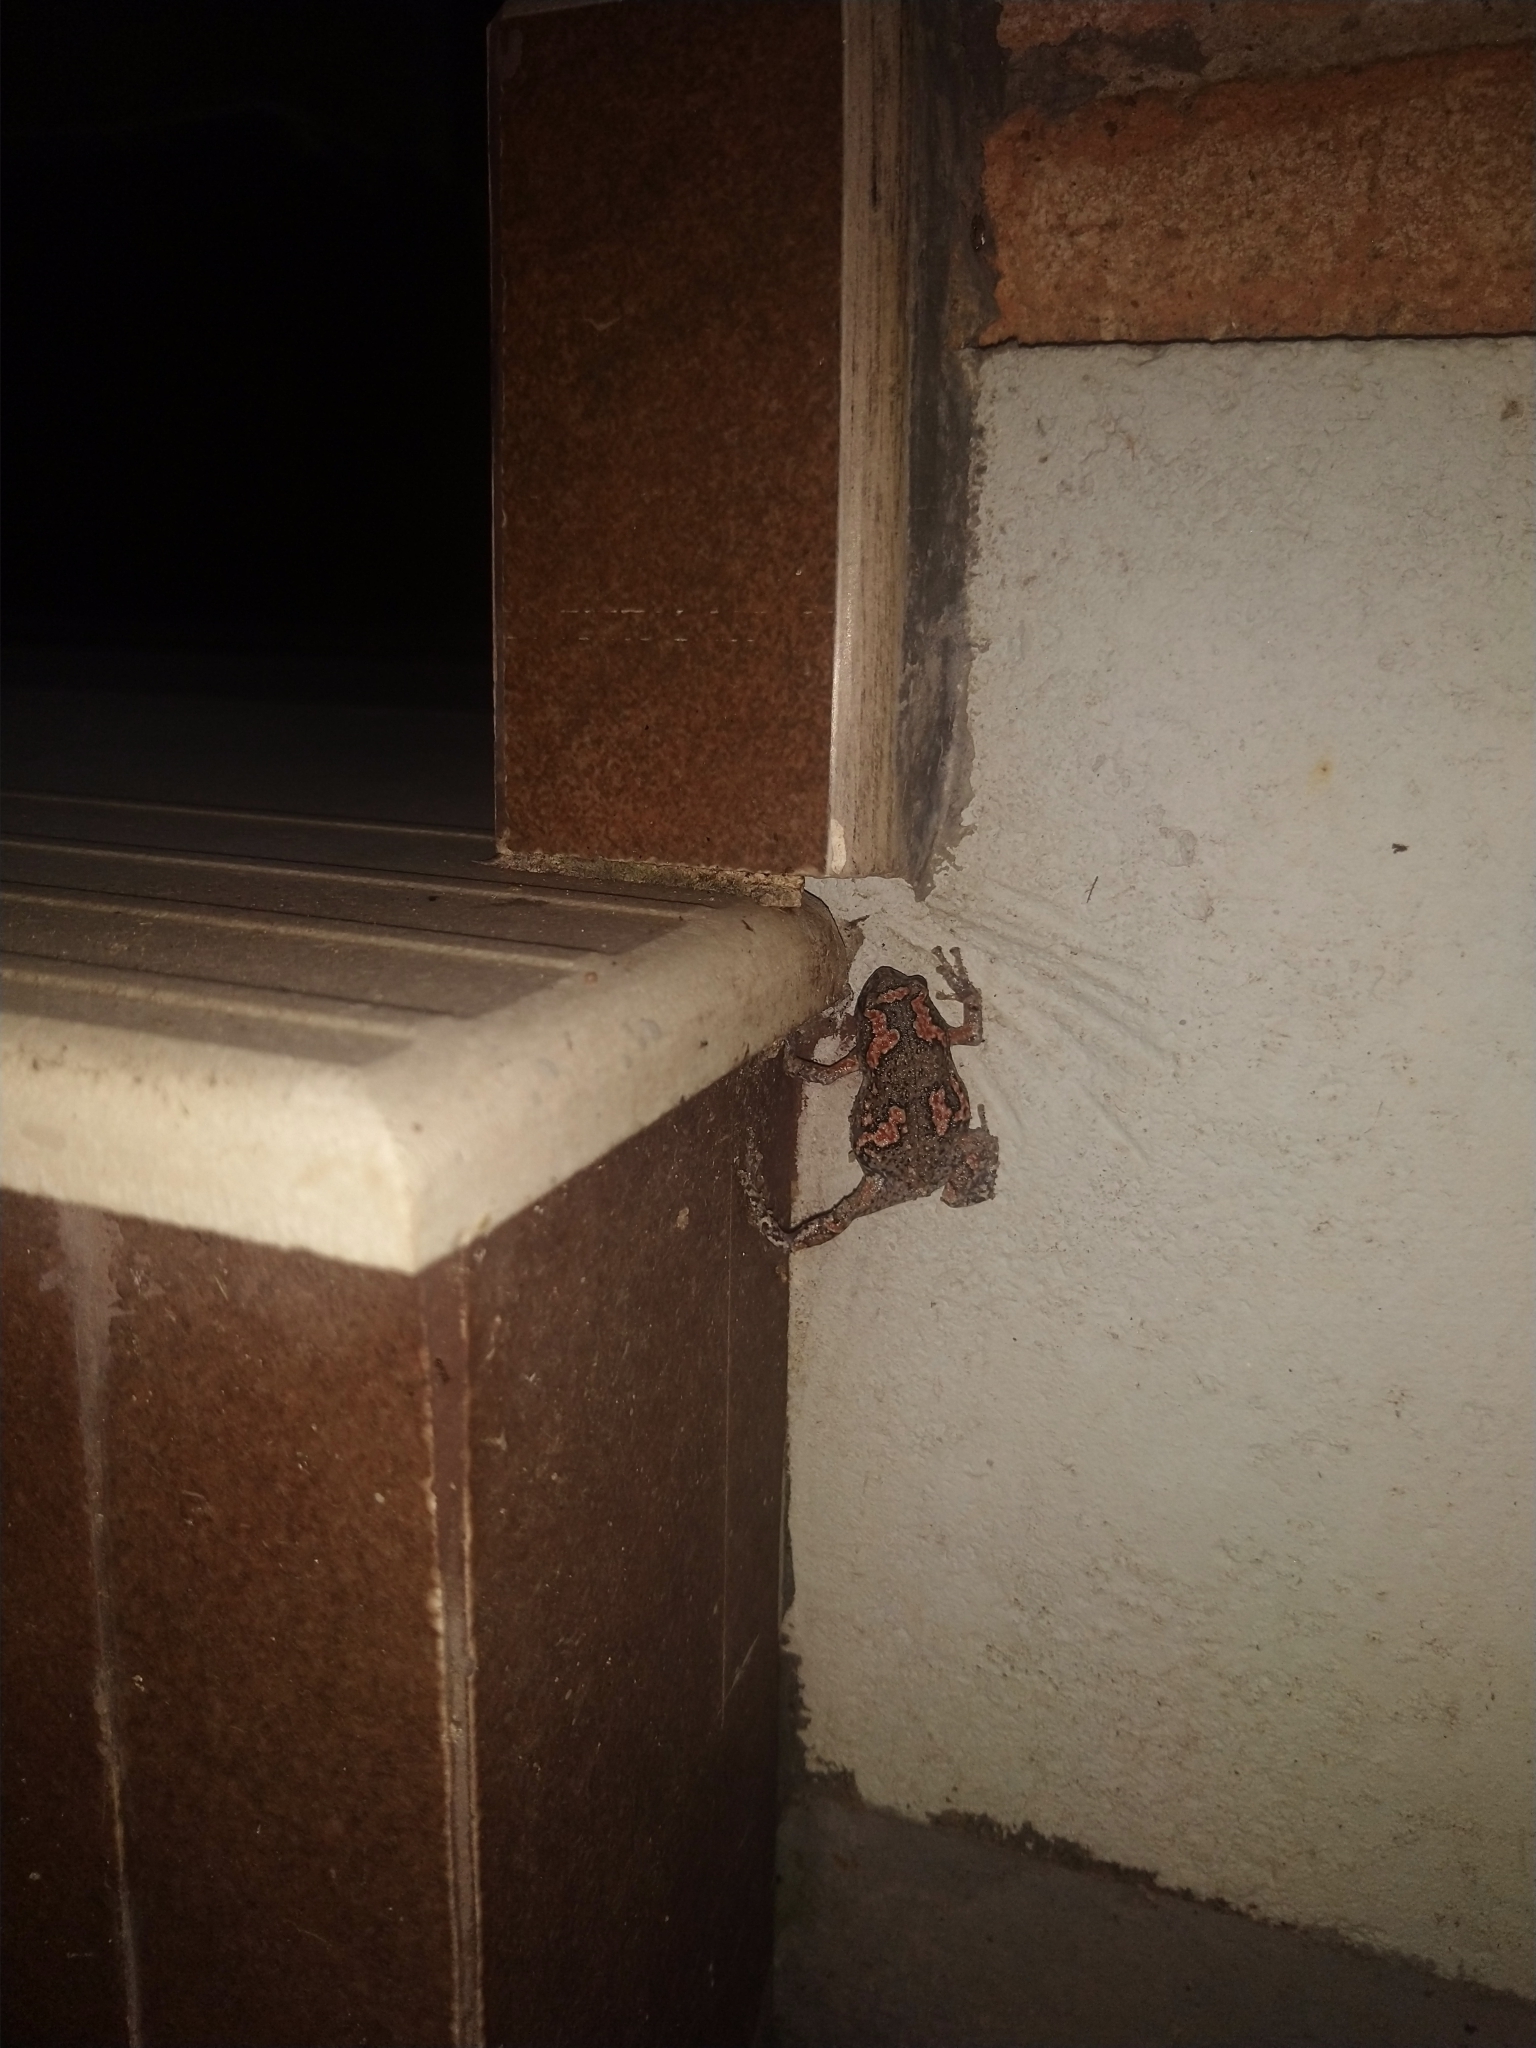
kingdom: Animalia
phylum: Chordata
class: Amphibia
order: Anura
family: Microhylidae
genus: Uperodon
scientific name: Uperodon taprobanicus
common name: Ceylon kaloula
